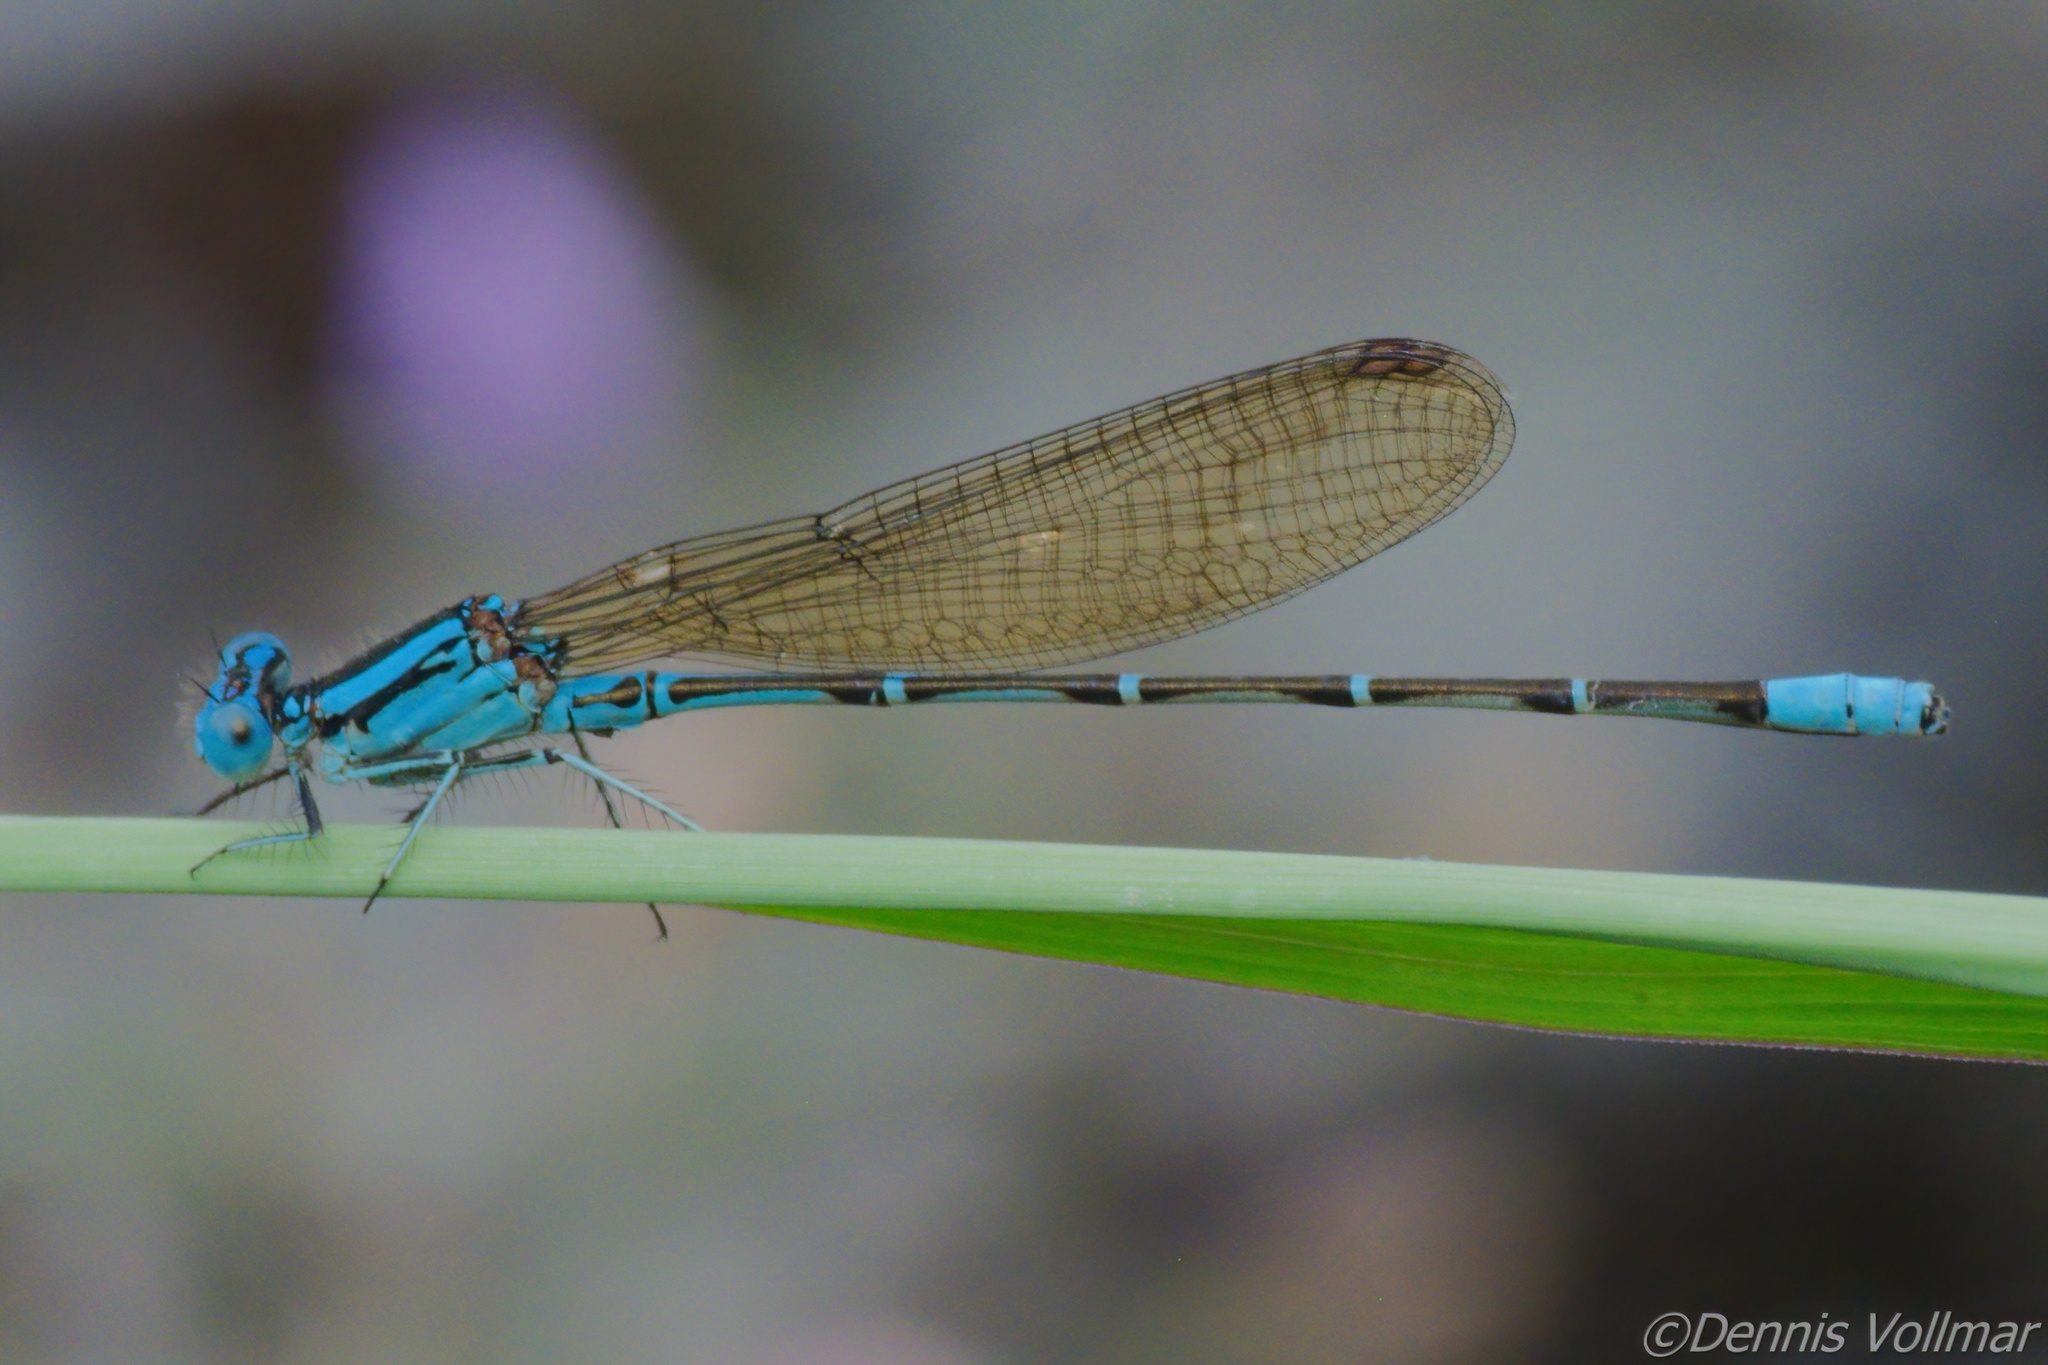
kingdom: Animalia
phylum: Arthropoda
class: Insecta
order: Odonata
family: Coenagrionidae
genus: Argia
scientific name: Argia rhoadsi
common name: Golden-winged dancer
